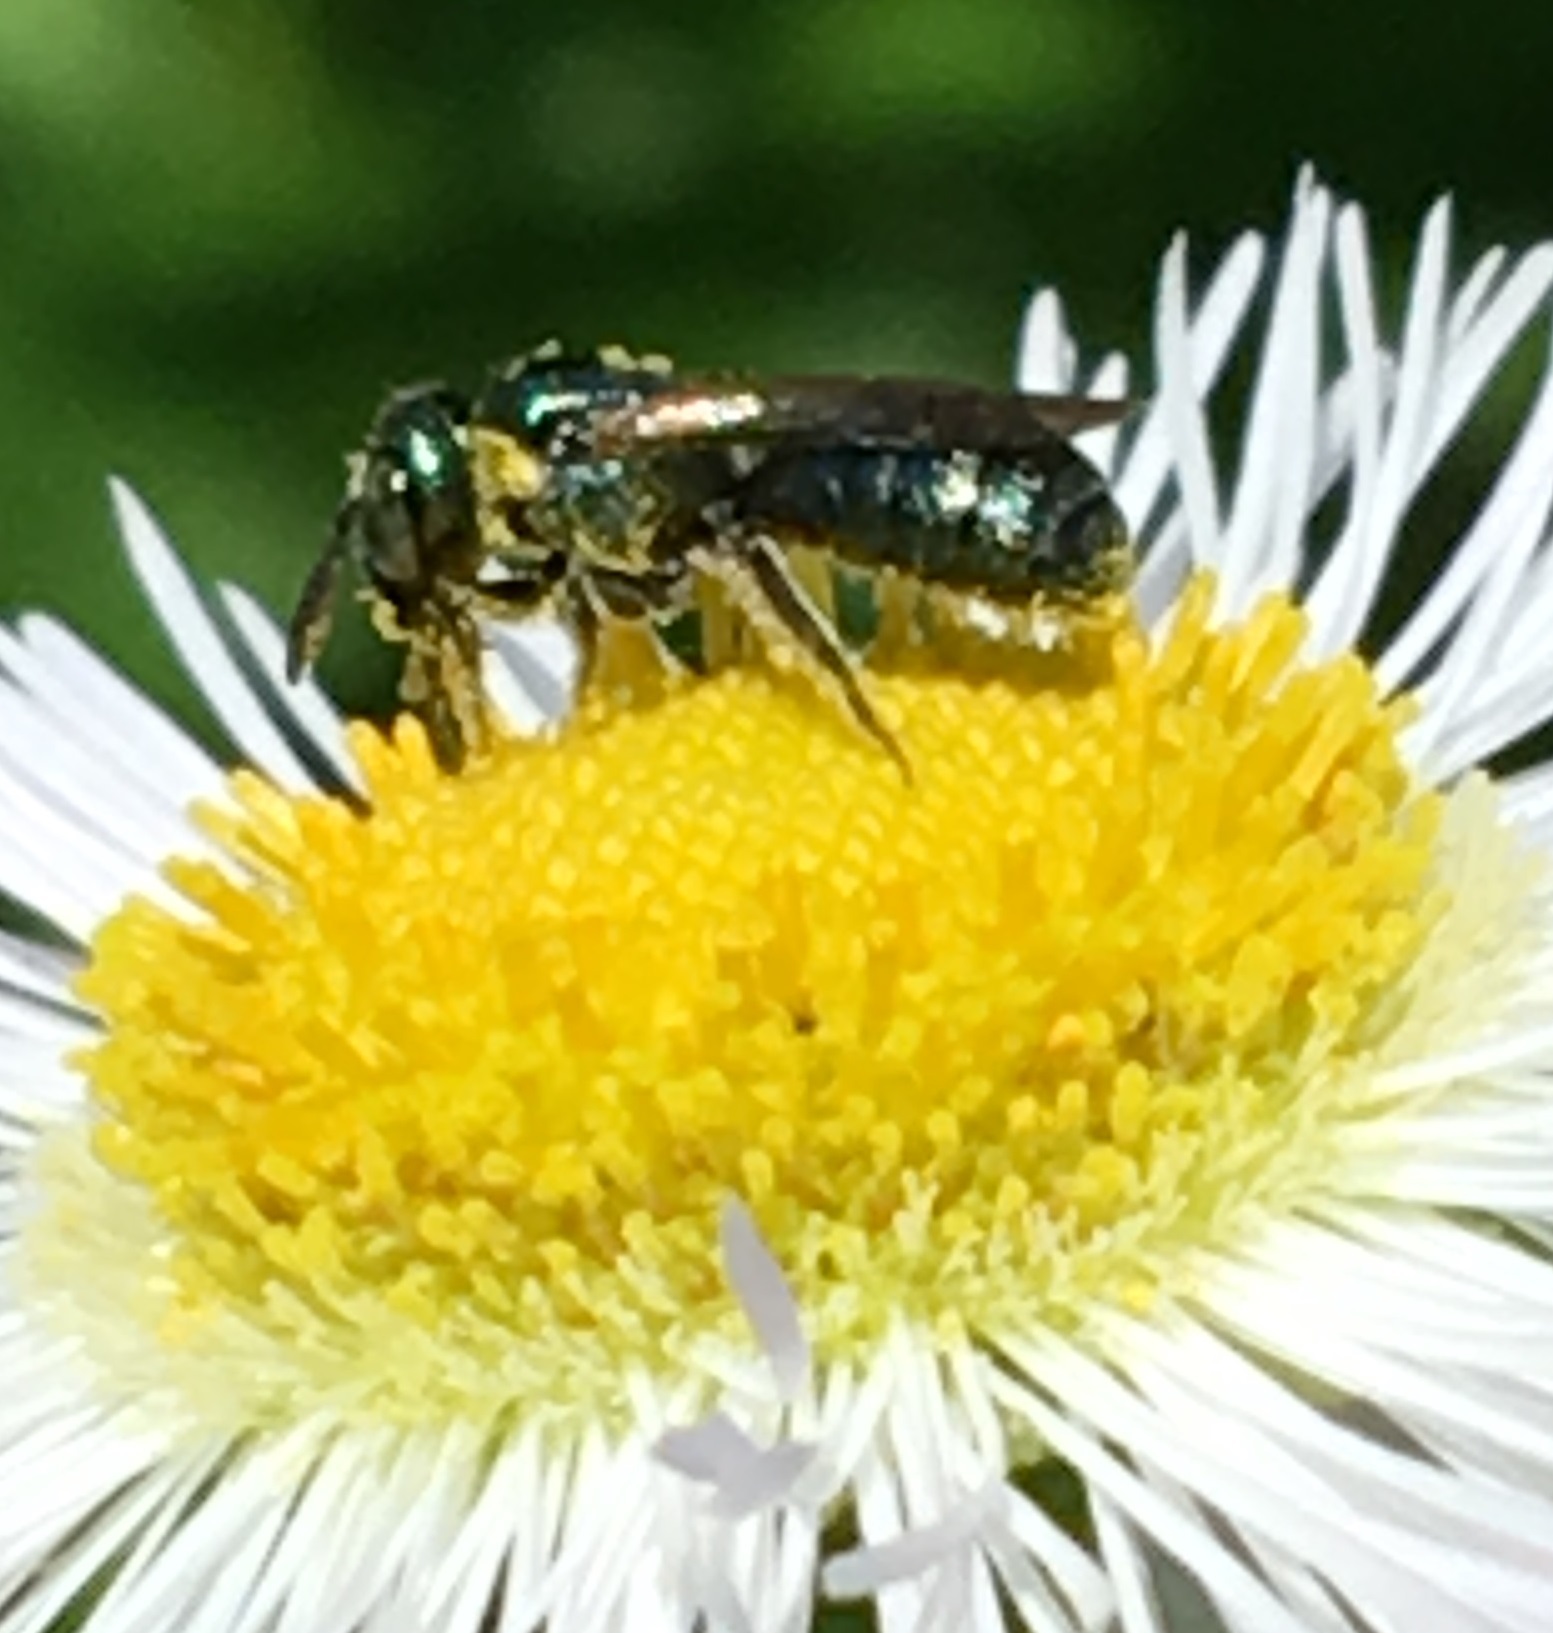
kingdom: Animalia
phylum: Arthropoda
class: Insecta
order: Hymenoptera
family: Apidae
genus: Zadontomerus
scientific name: Zadontomerus
